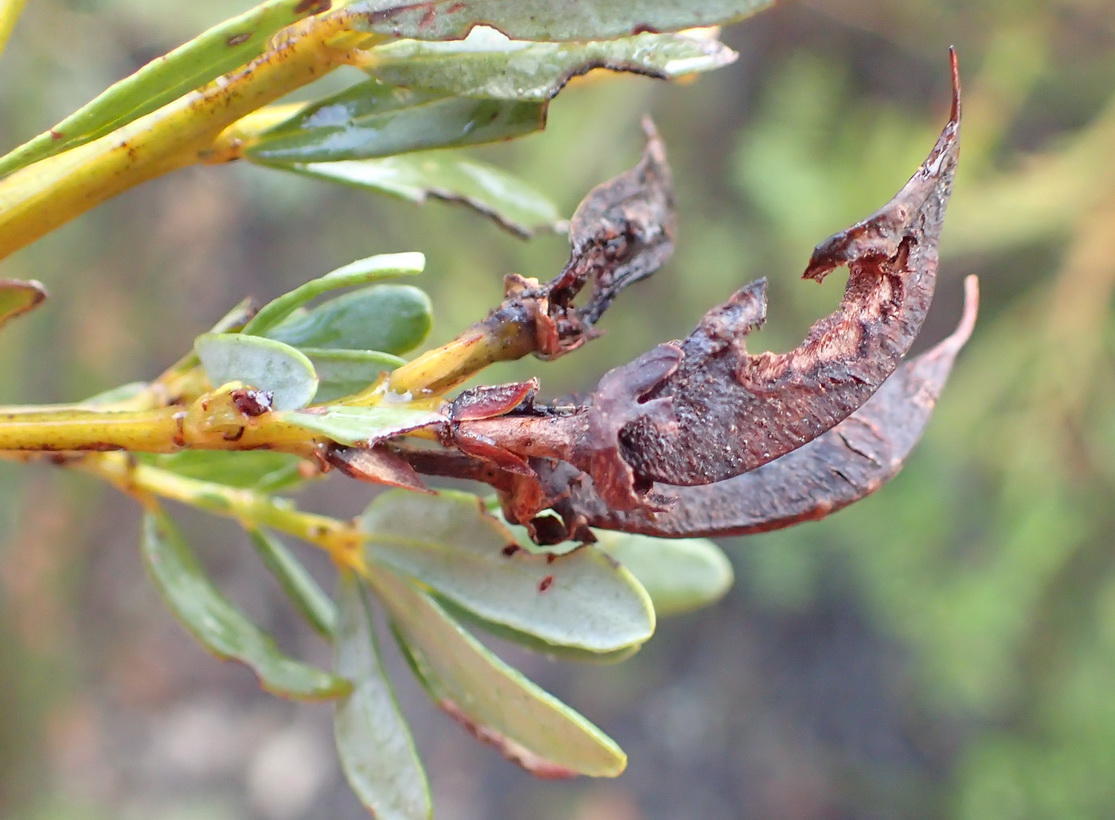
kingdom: Plantae
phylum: Tracheophyta
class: Magnoliopsida
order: Fabales
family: Fabaceae
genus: Cyclopia
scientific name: Cyclopia subternata
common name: Honeybush tea
